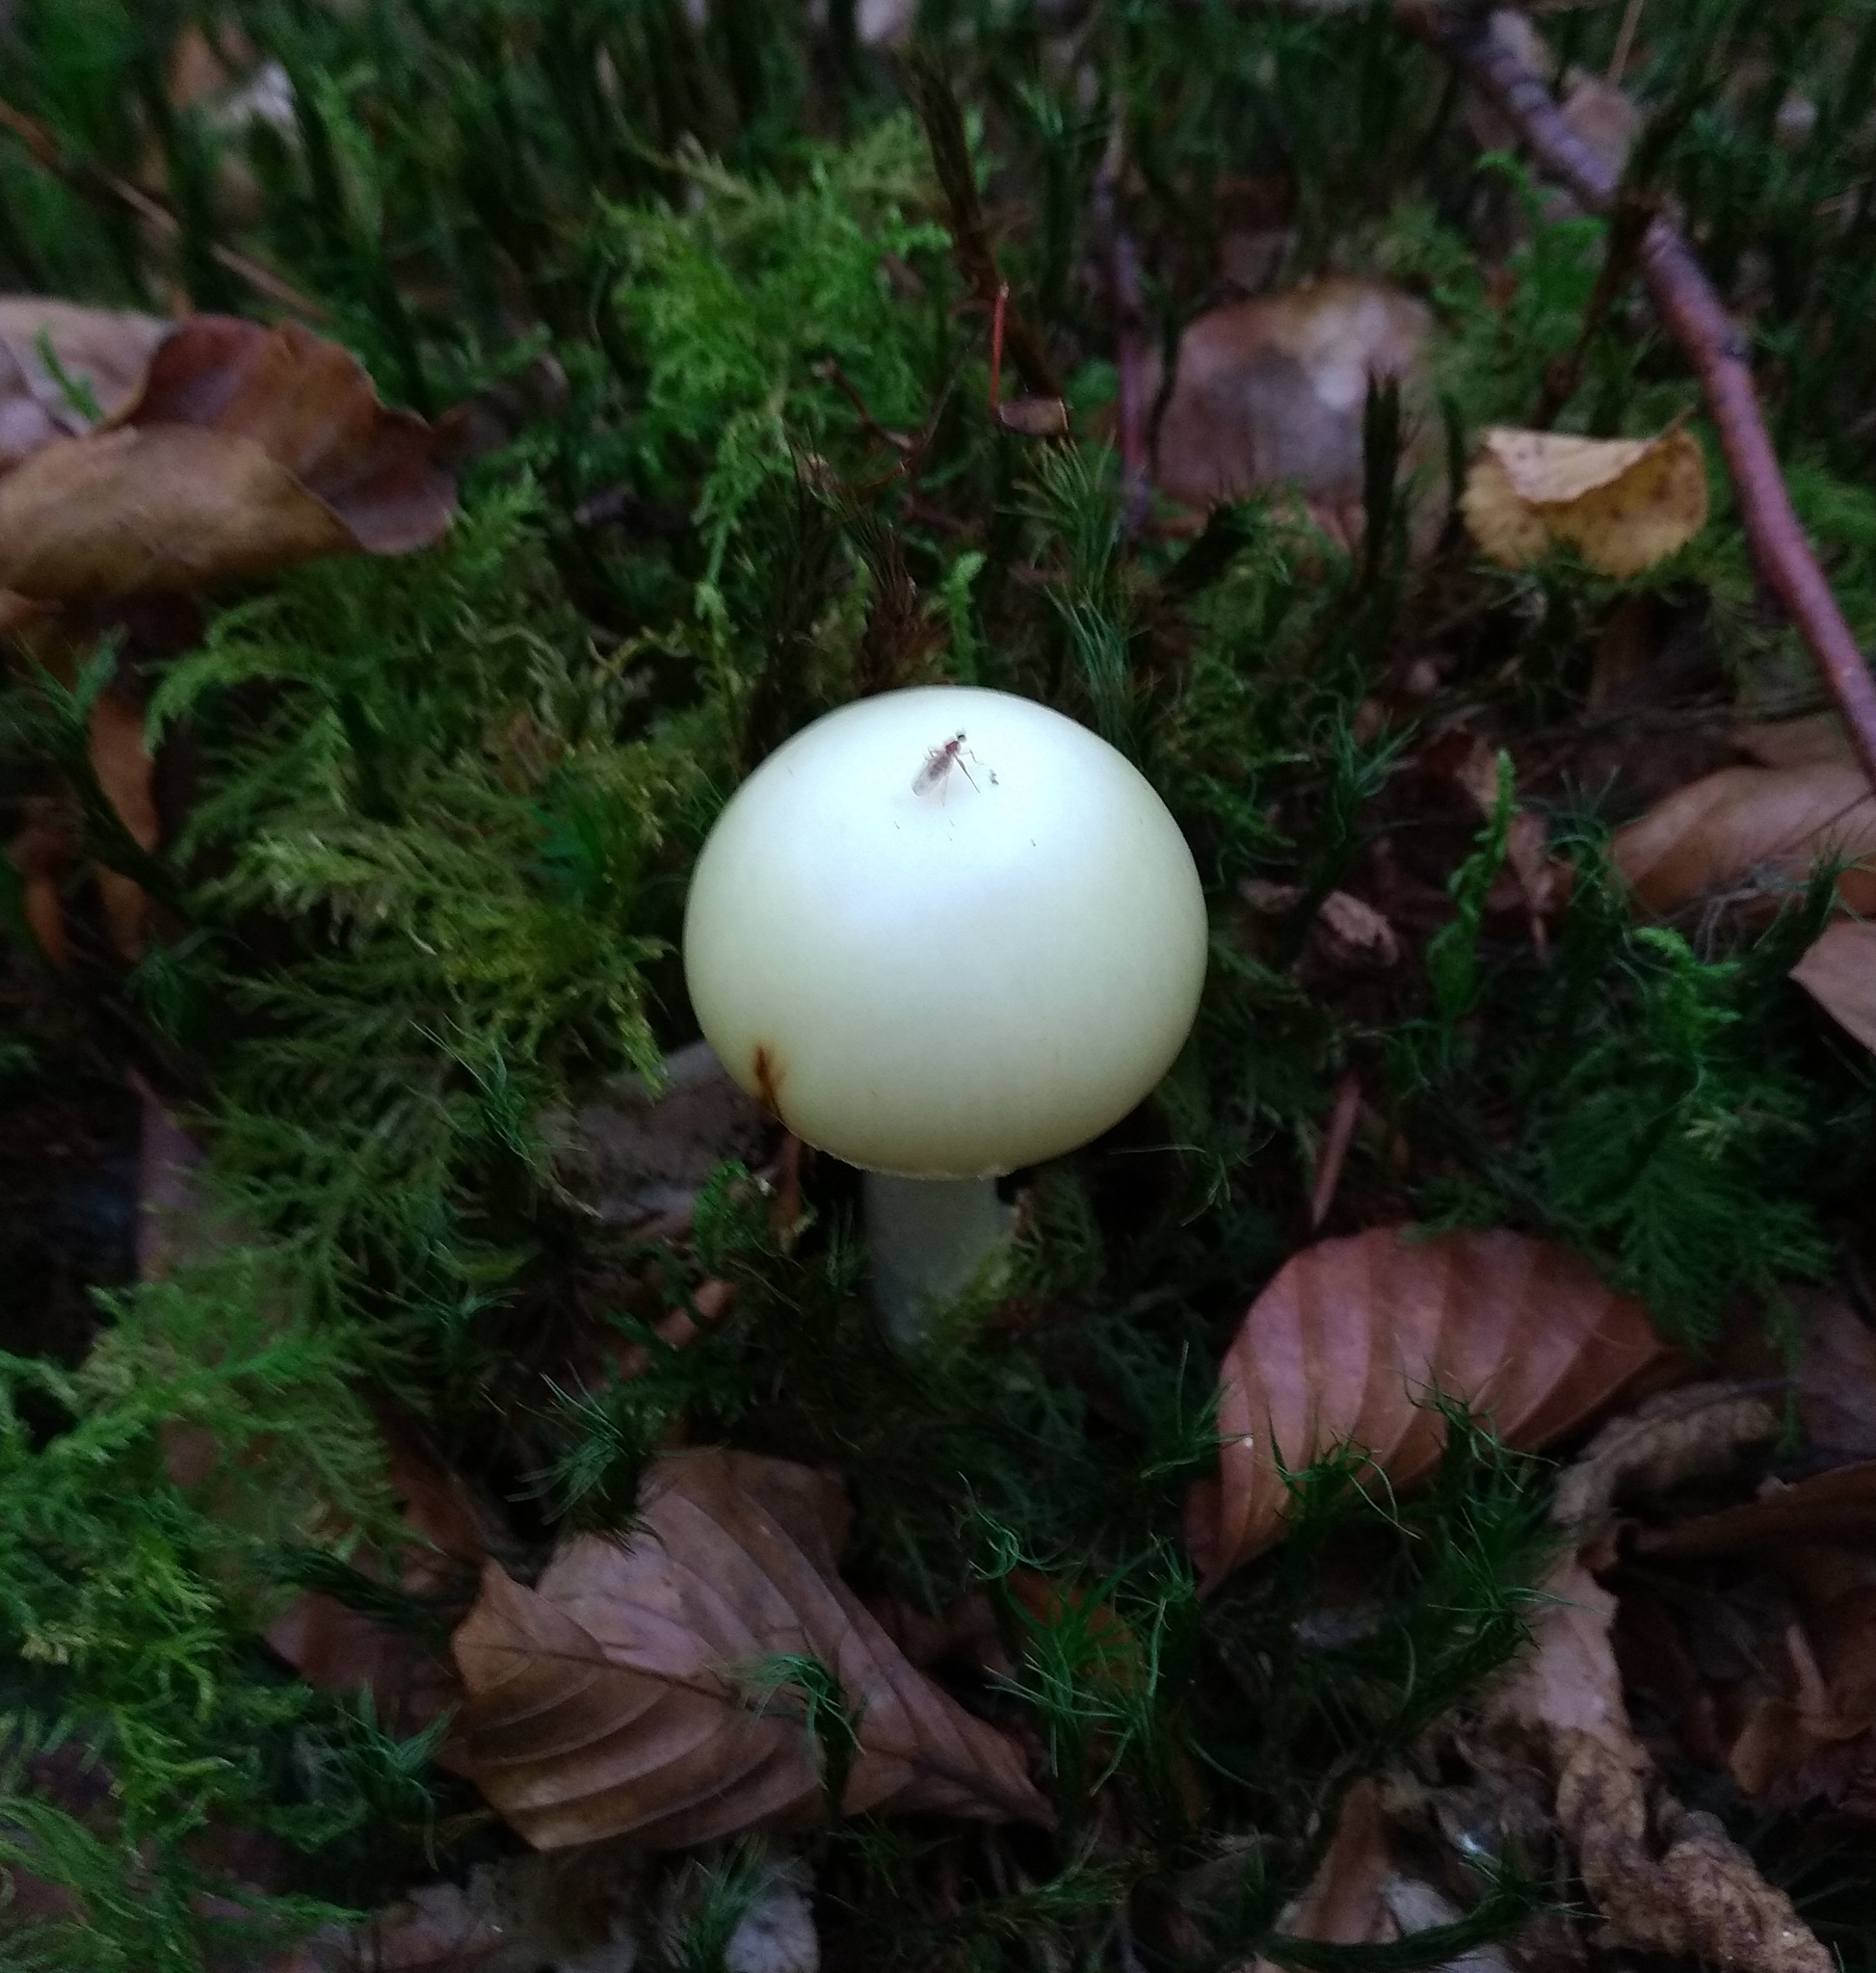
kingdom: Fungi
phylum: Basidiomycota
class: Agaricomycetes
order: Agaricales
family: Amanitaceae
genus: Amanita
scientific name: Amanita phalloides
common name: Death cap
